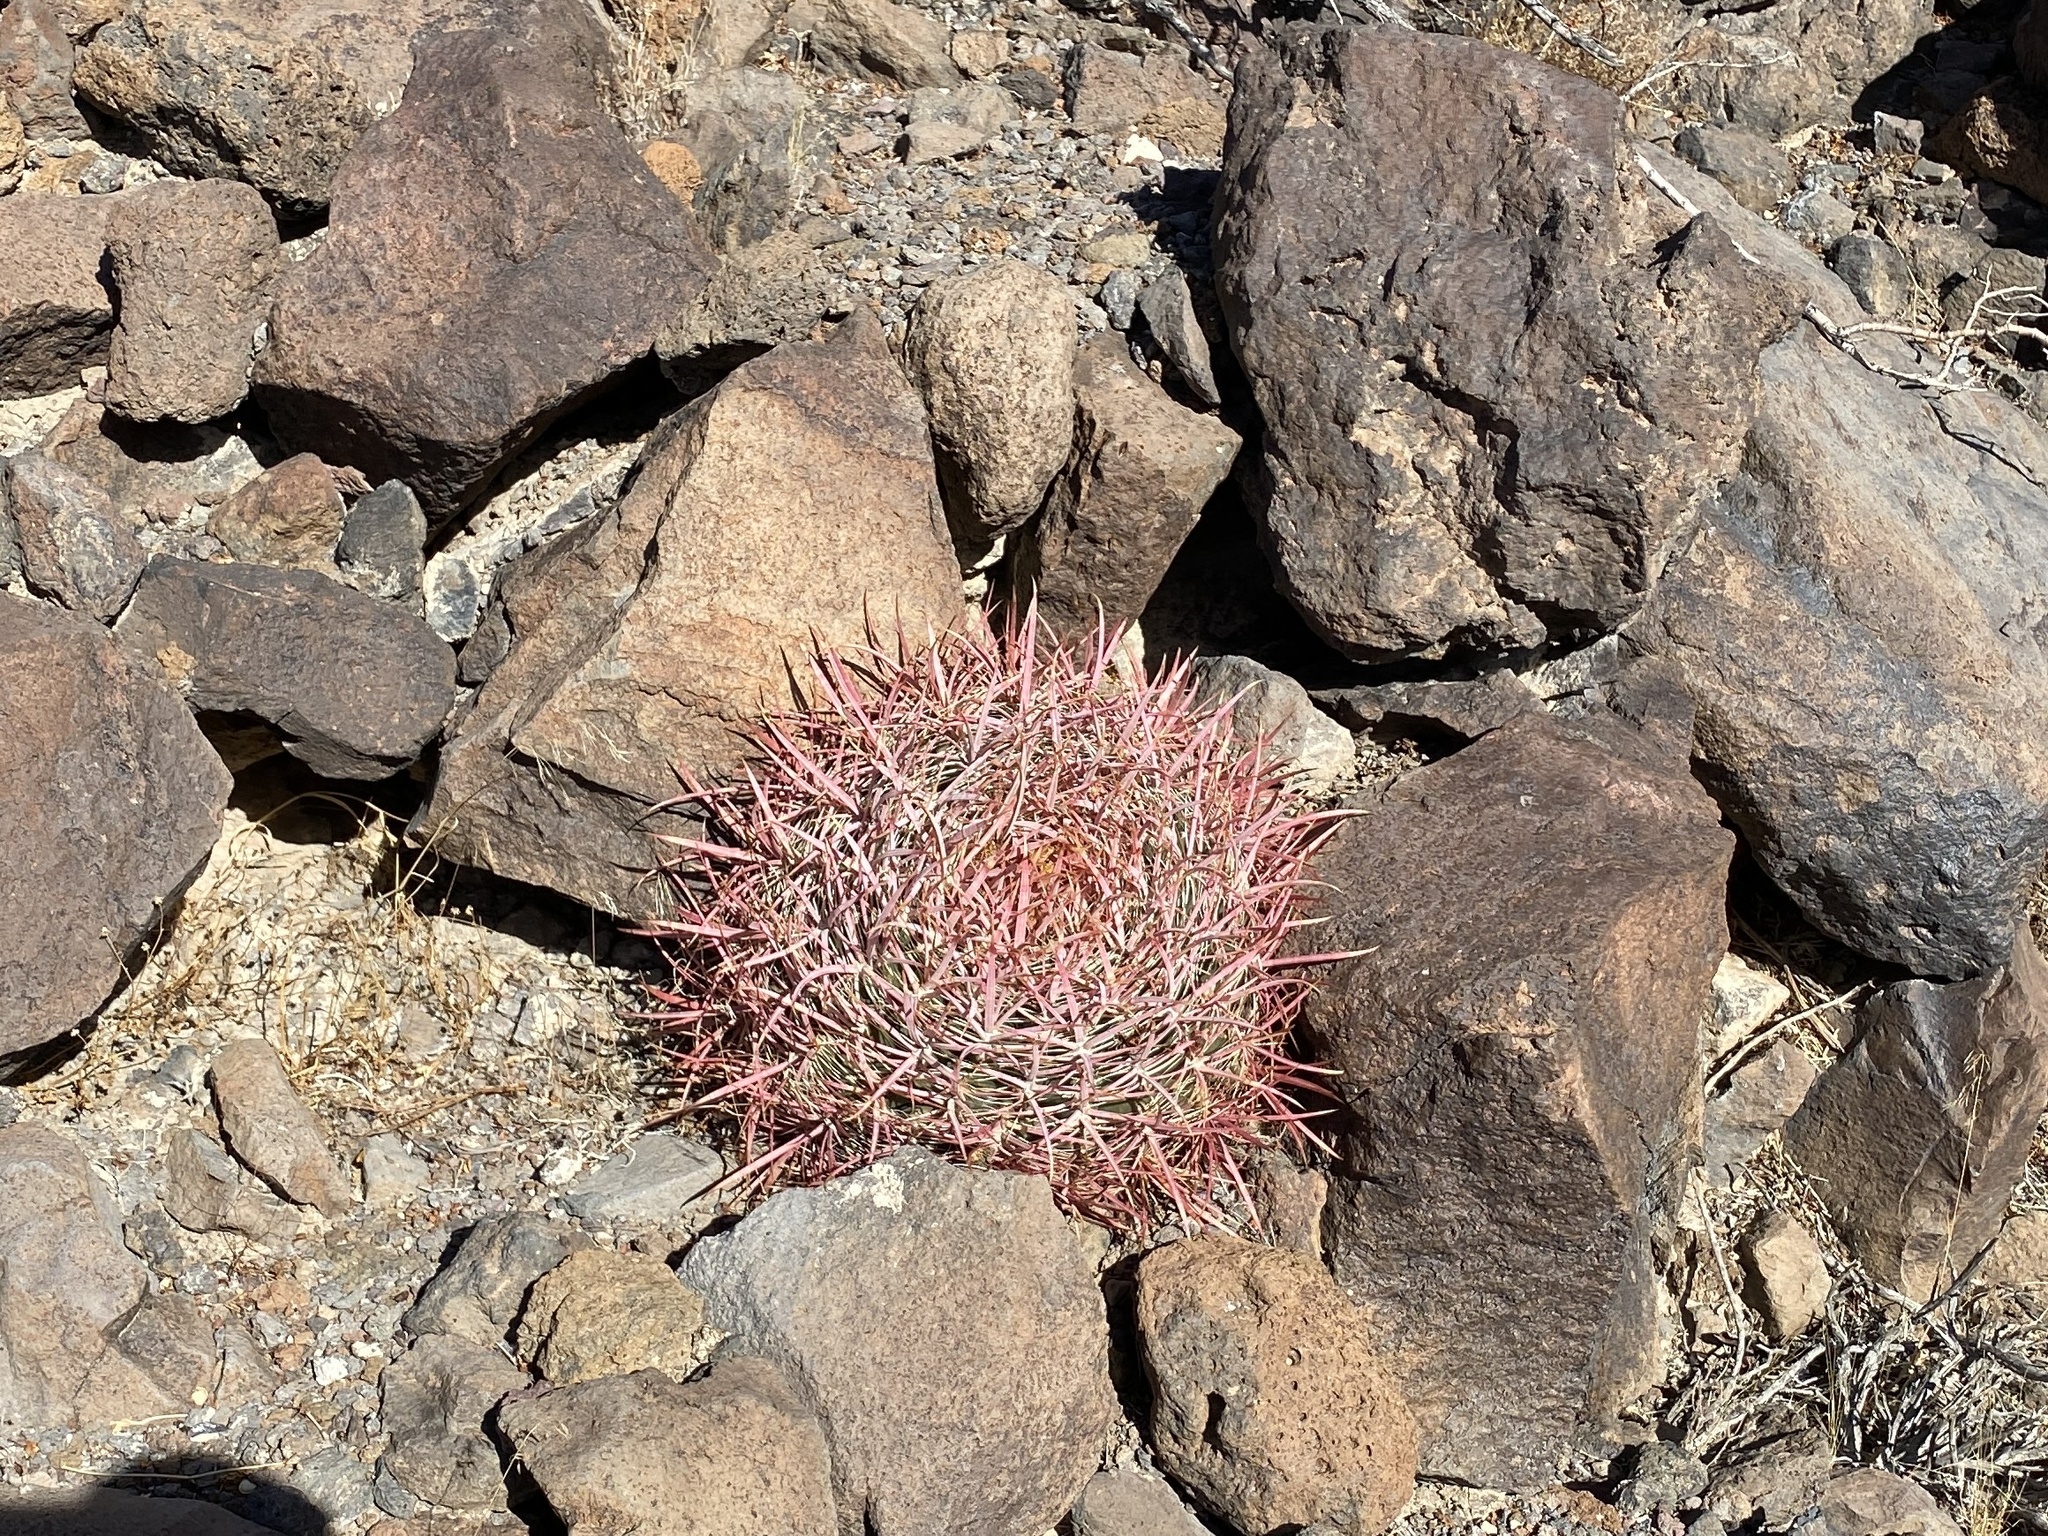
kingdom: Plantae
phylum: Tracheophyta
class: Magnoliopsida
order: Caryophyllales
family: Cactaceae
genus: Ferocactus
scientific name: Ferocactus cylindraceus
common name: California barrel cactus
